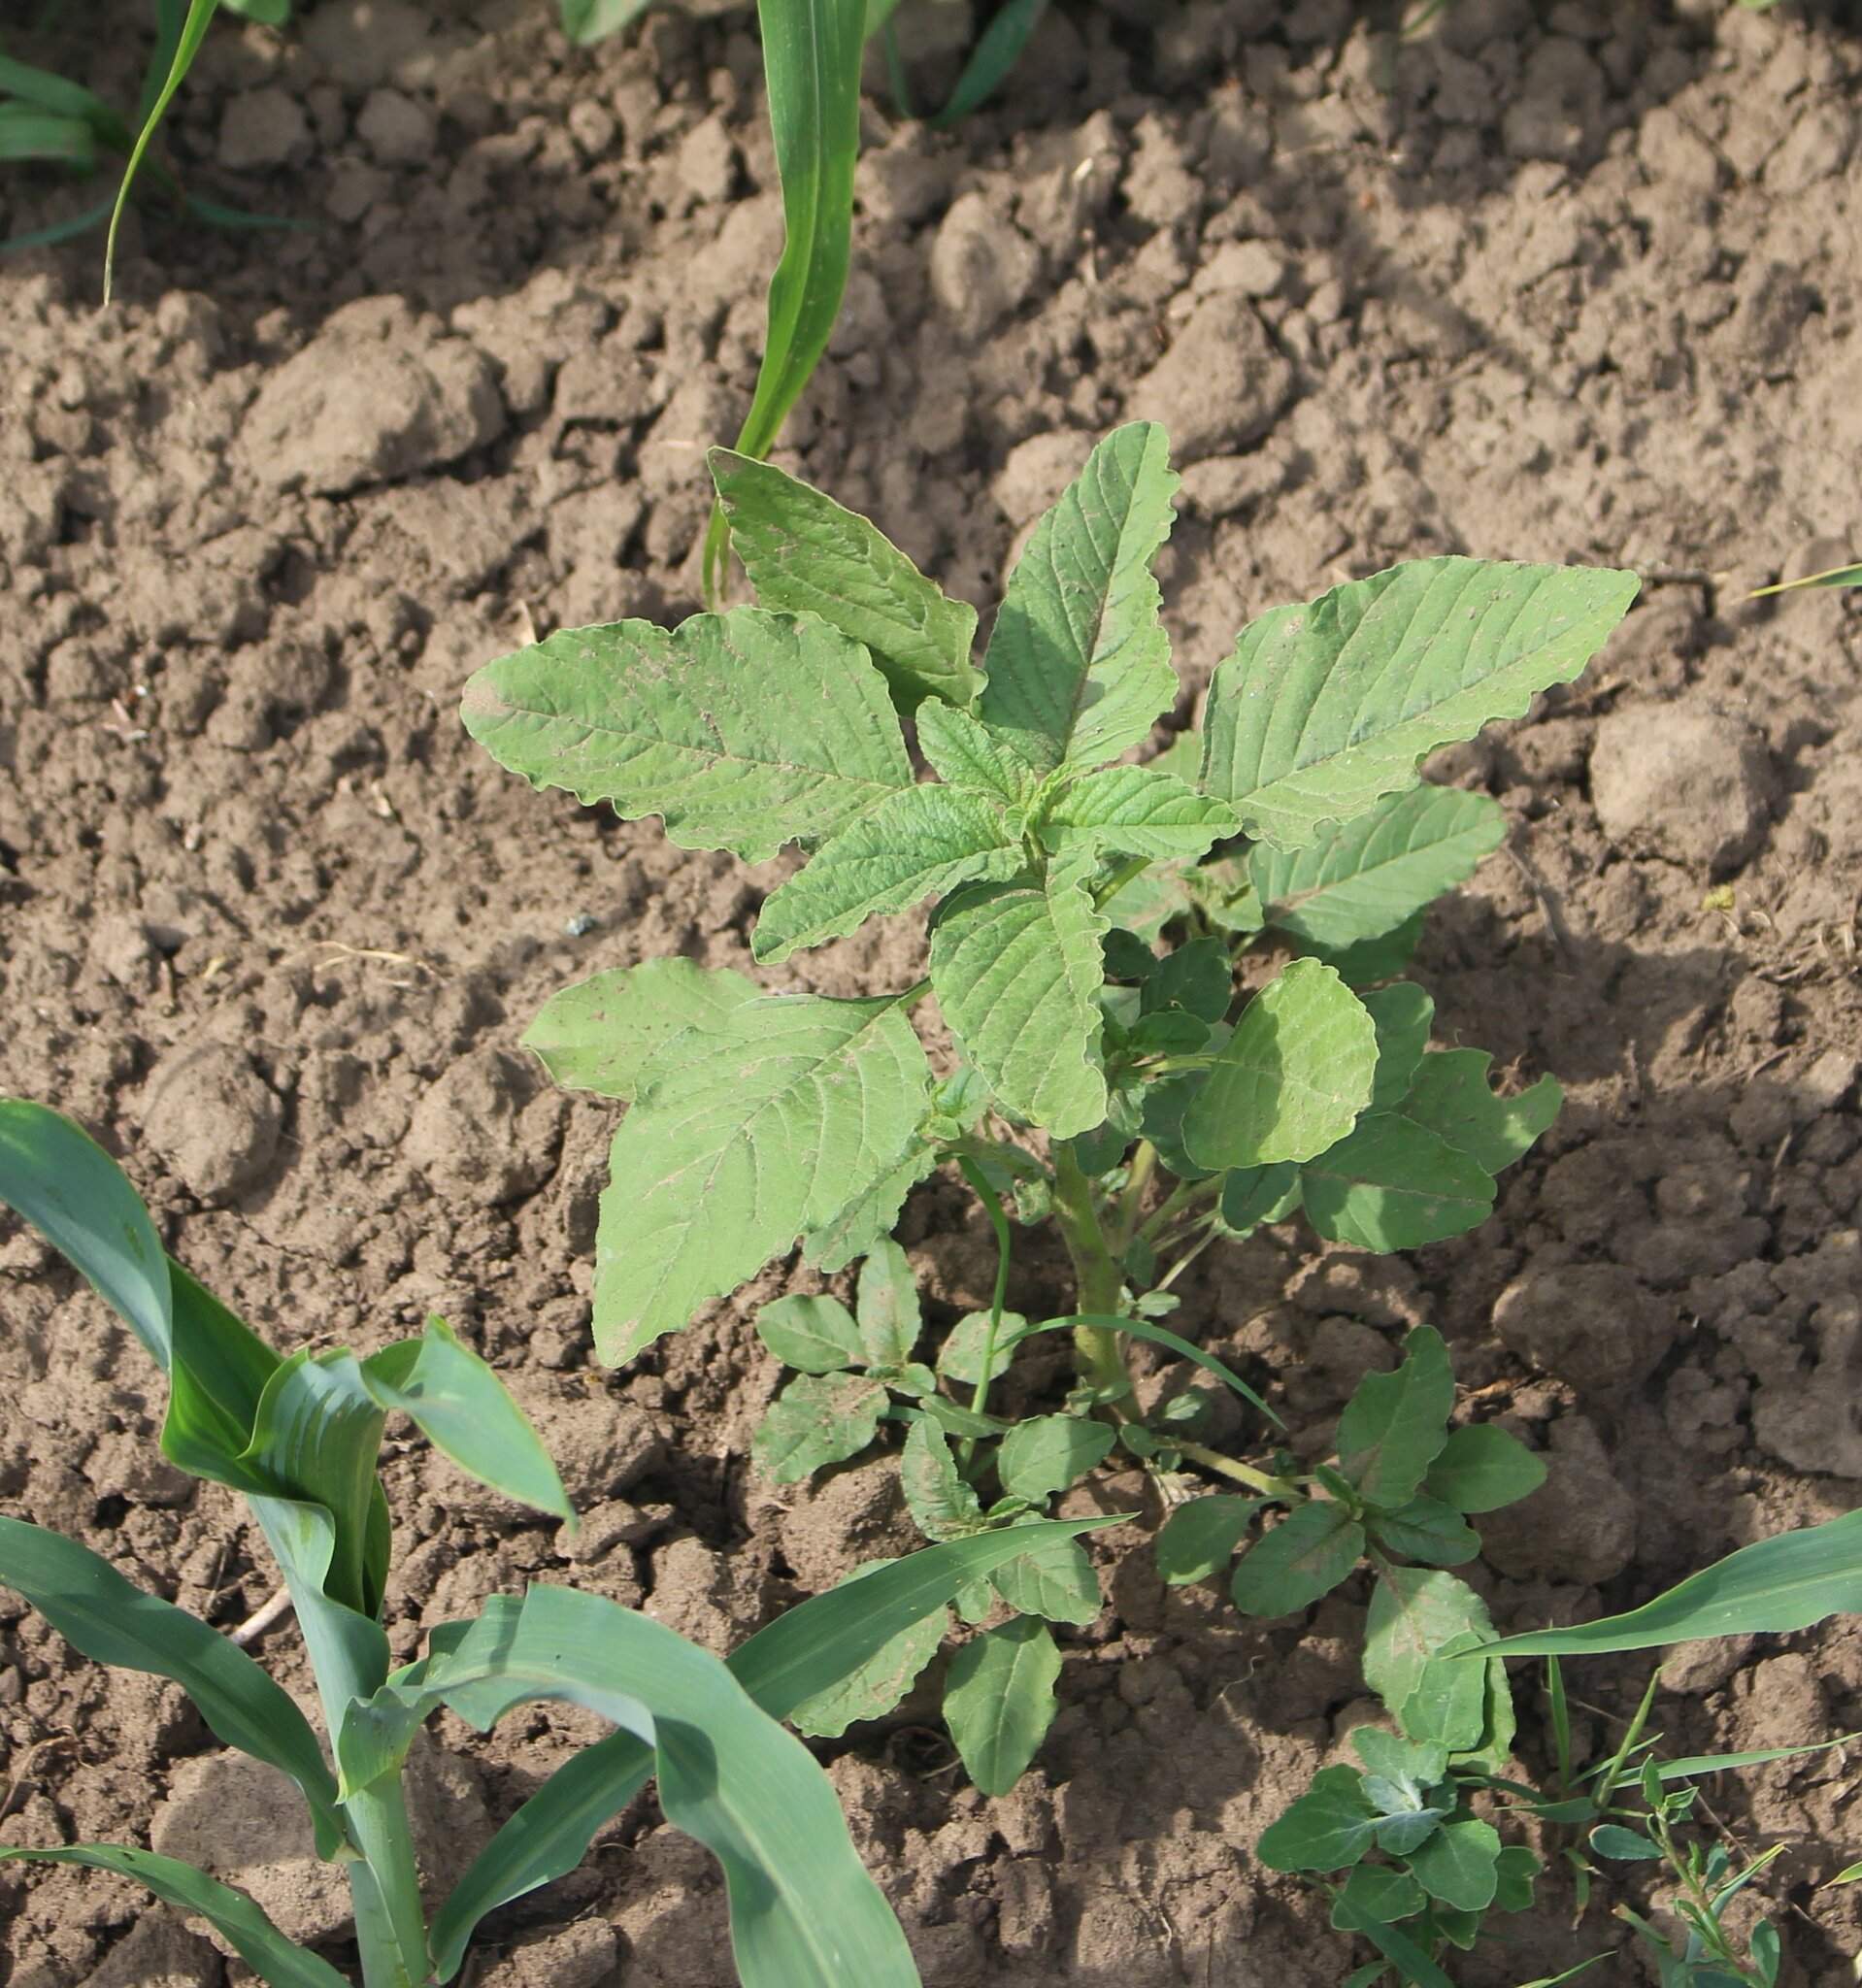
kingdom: Plantae
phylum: Tracheophyta
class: Magnoliopsida
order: Caryophyllales
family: Amaranthaceae
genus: Amaranthus
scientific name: Amaranthus retroflexus
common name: Redroot amaranth
